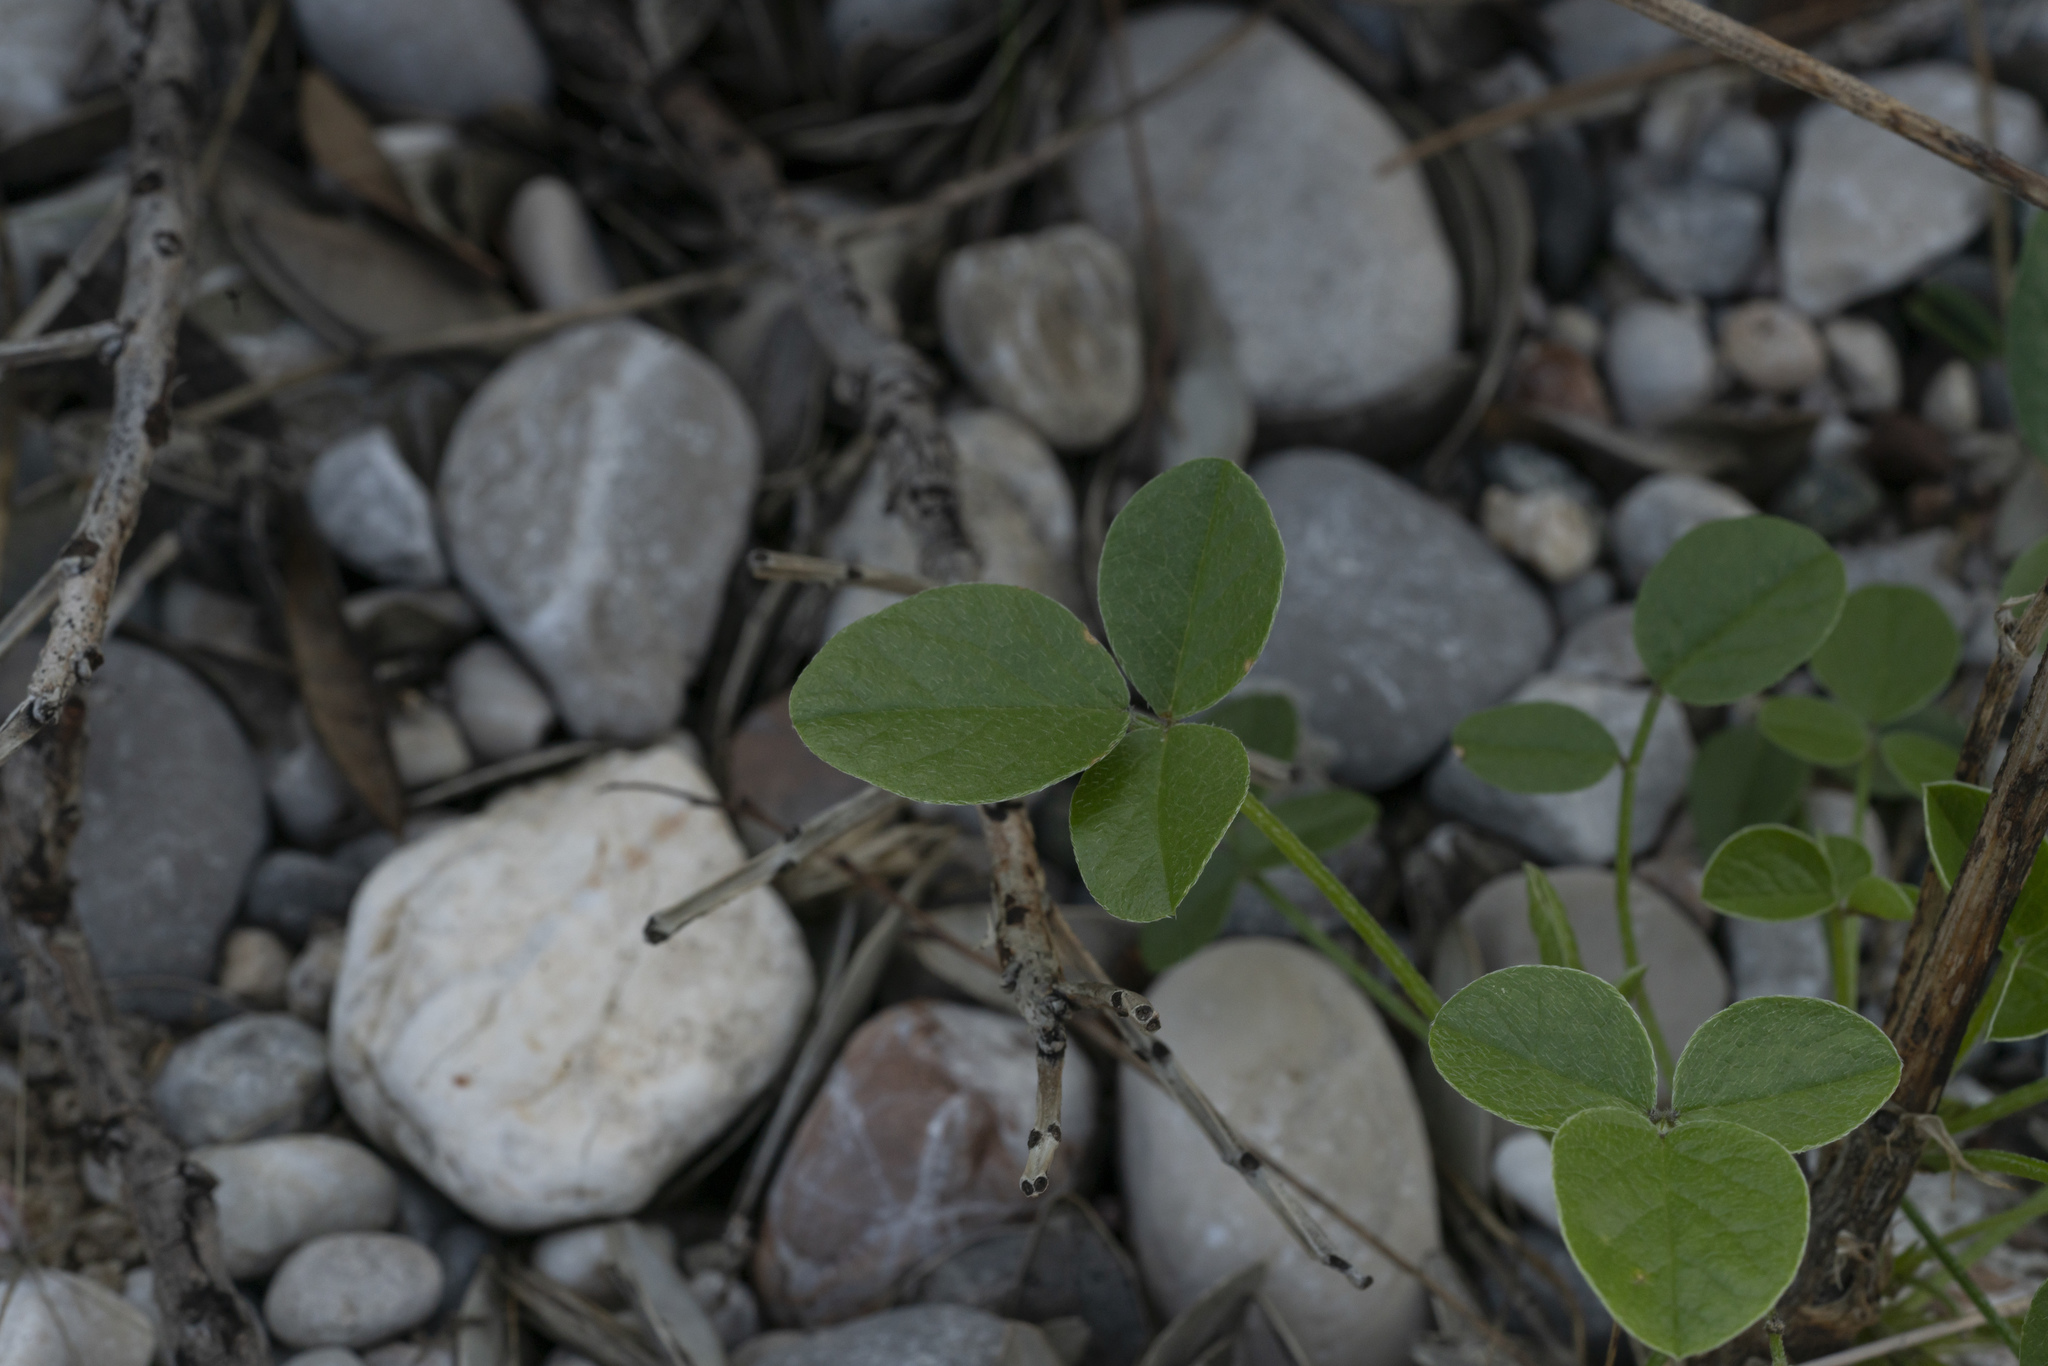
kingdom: Plantae
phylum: Tracheophyta
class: Magnoliopsida
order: Fabales
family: Fabaceae
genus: Bituminaria
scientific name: Bituminaria bituminosa
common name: Arabian pea
